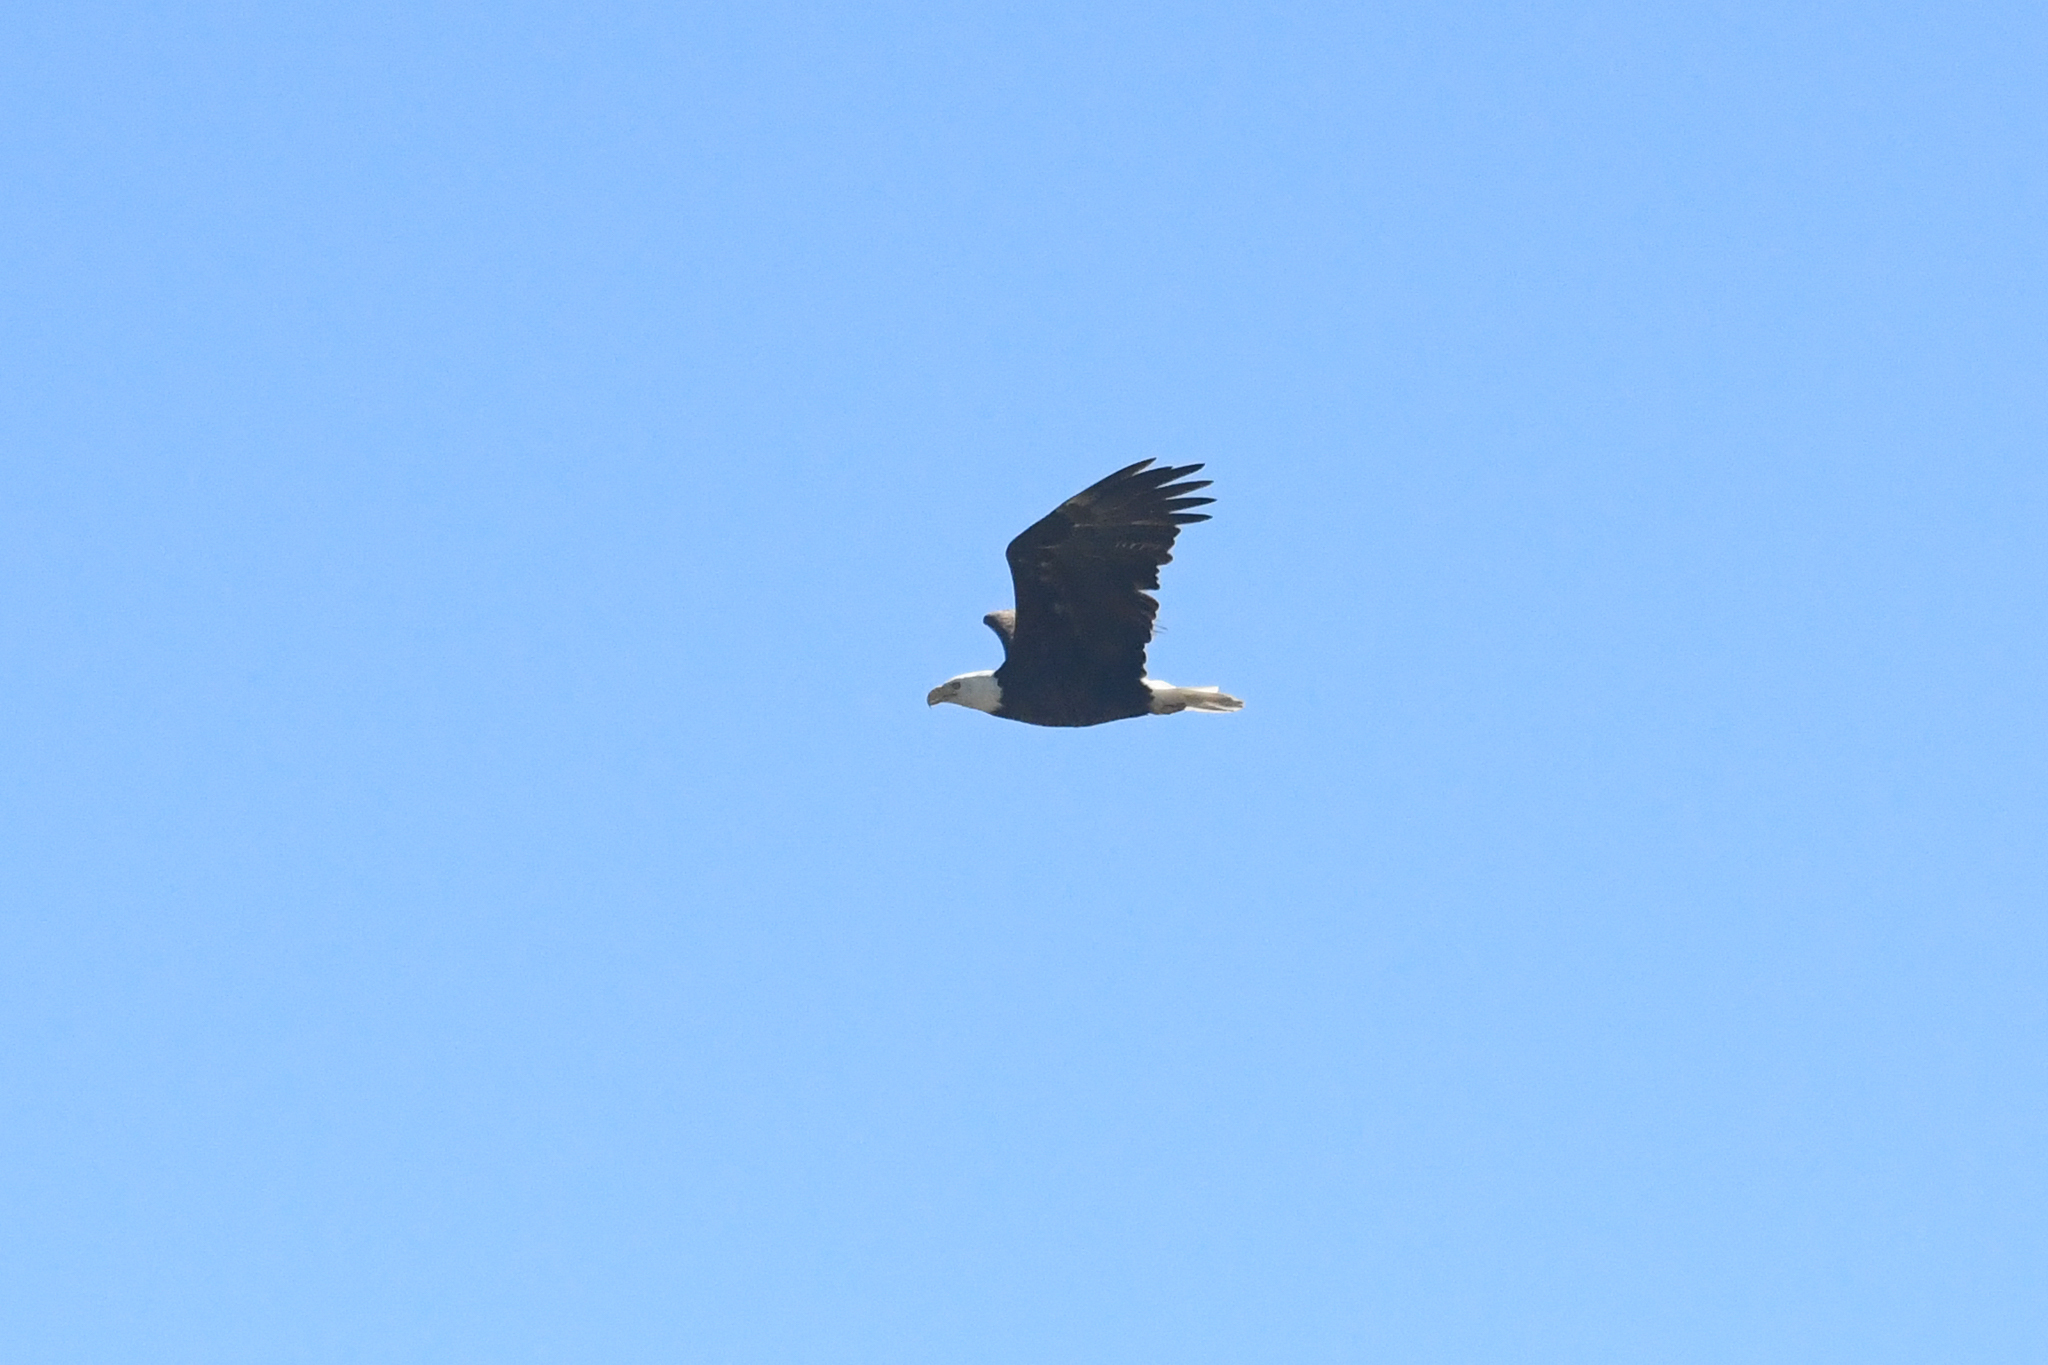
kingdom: Animalia
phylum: Chordata
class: Aves
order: Accipitriformes
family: Accipitridae
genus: Haliaeetus
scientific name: Haliaeetus leucocephalus
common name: Bald eagle
